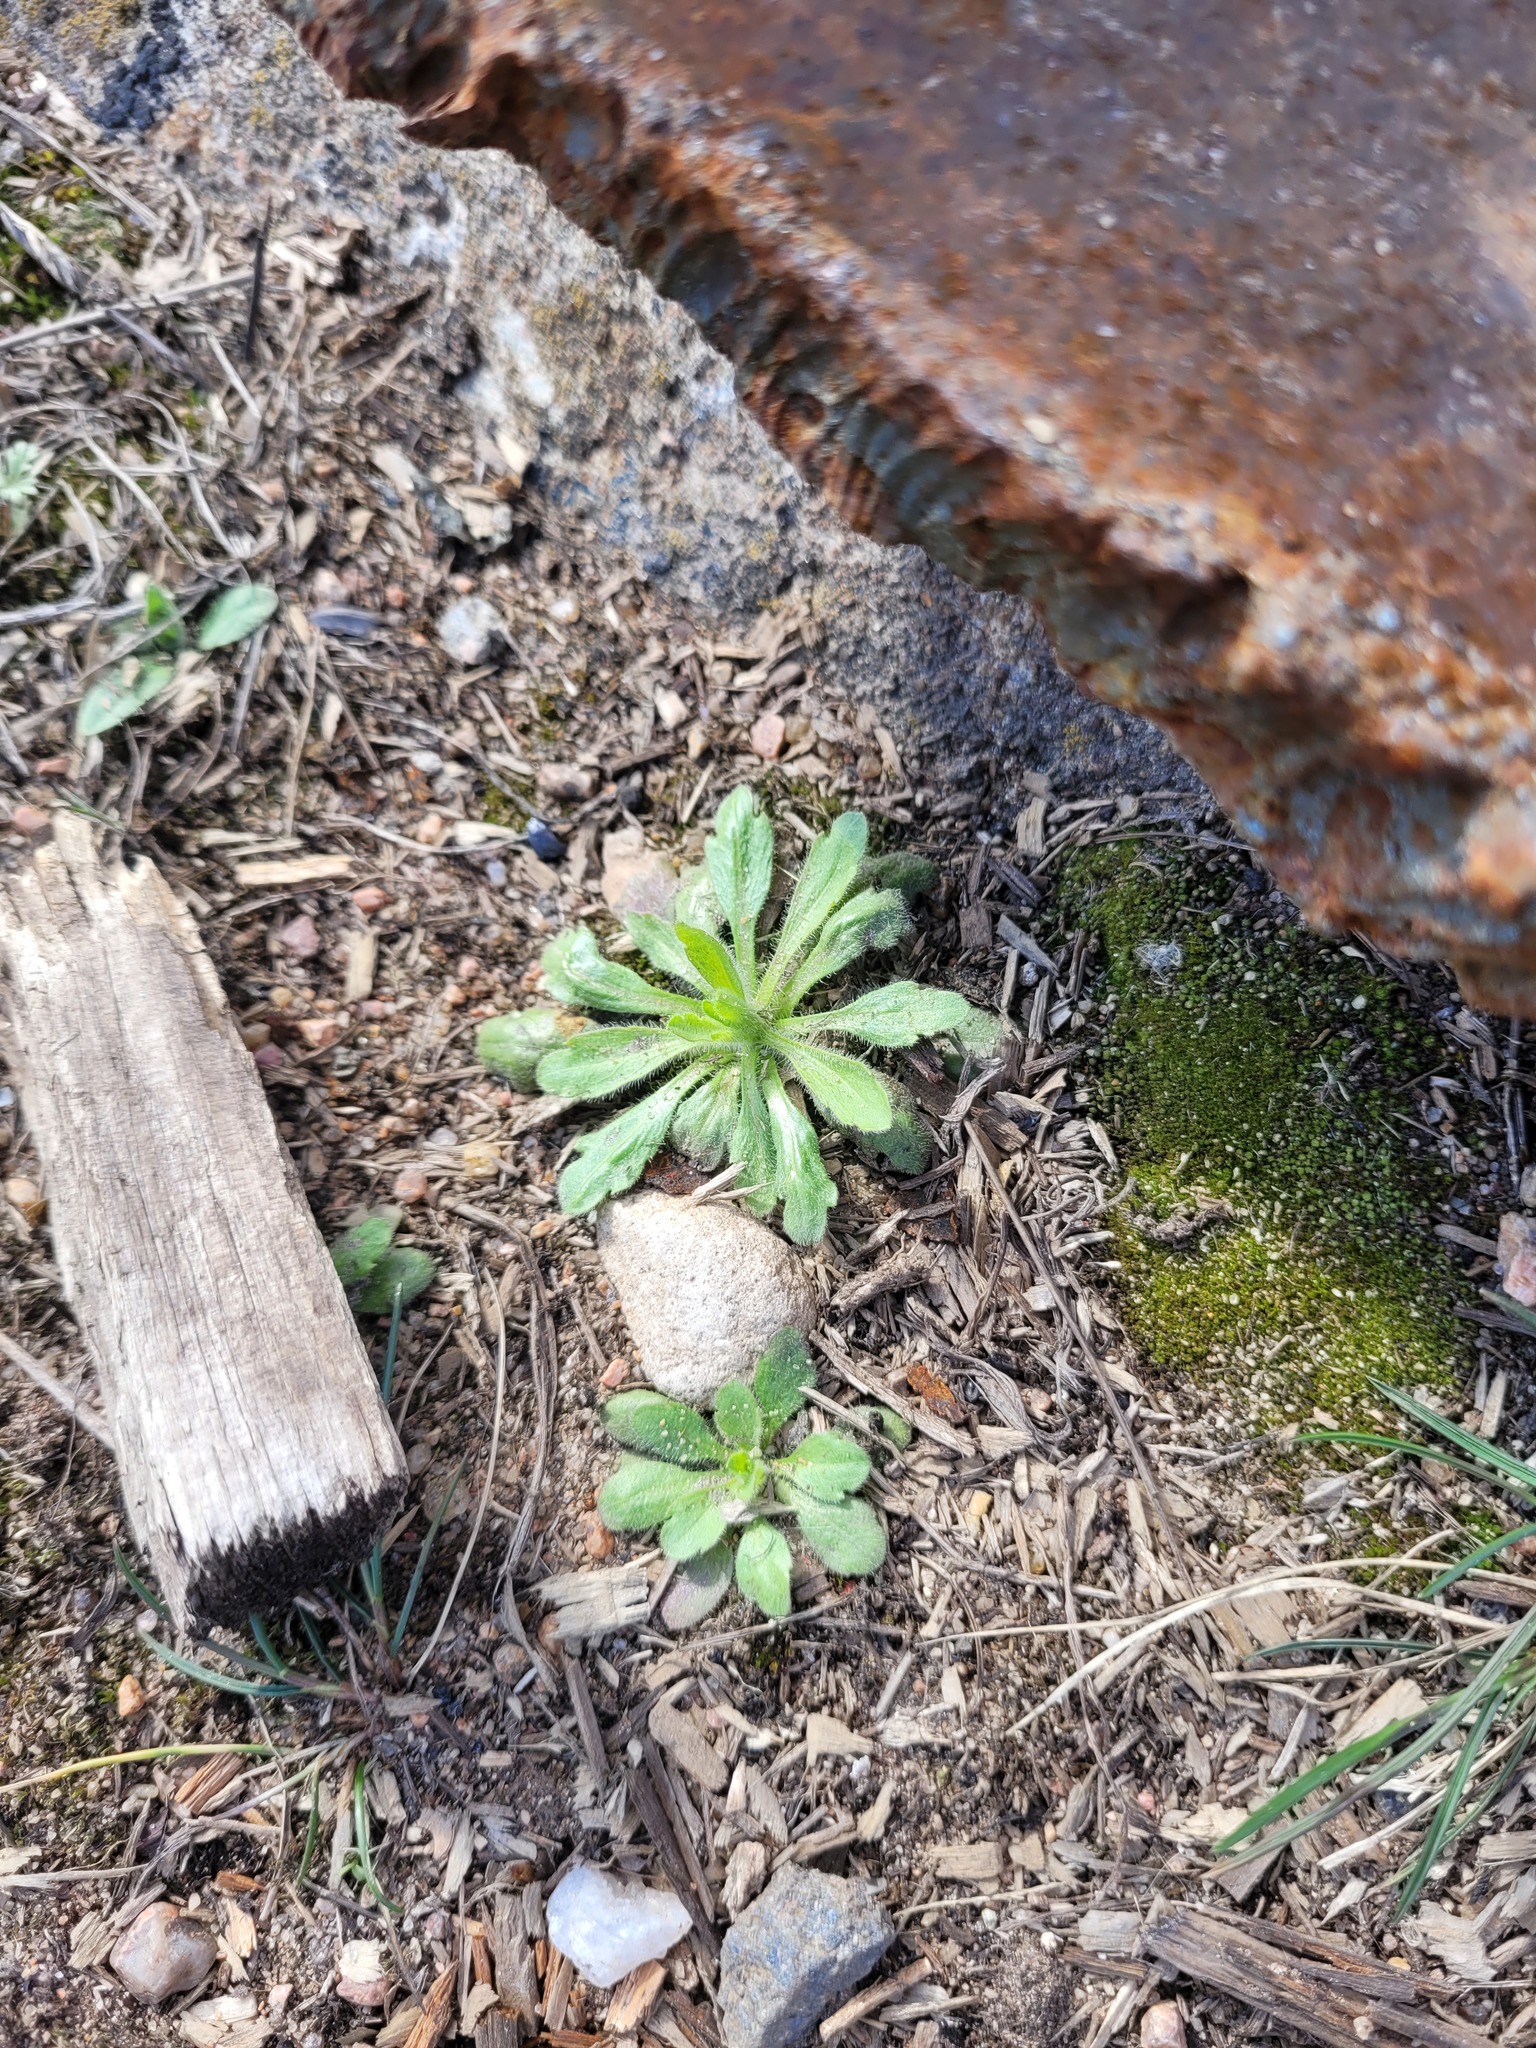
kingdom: Plantae
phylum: Tracheophyta
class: Magnoliopsida
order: Asterales
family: Asteraceae
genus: Erigeron
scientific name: Erigeron canadensis
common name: Canadian fleabane
